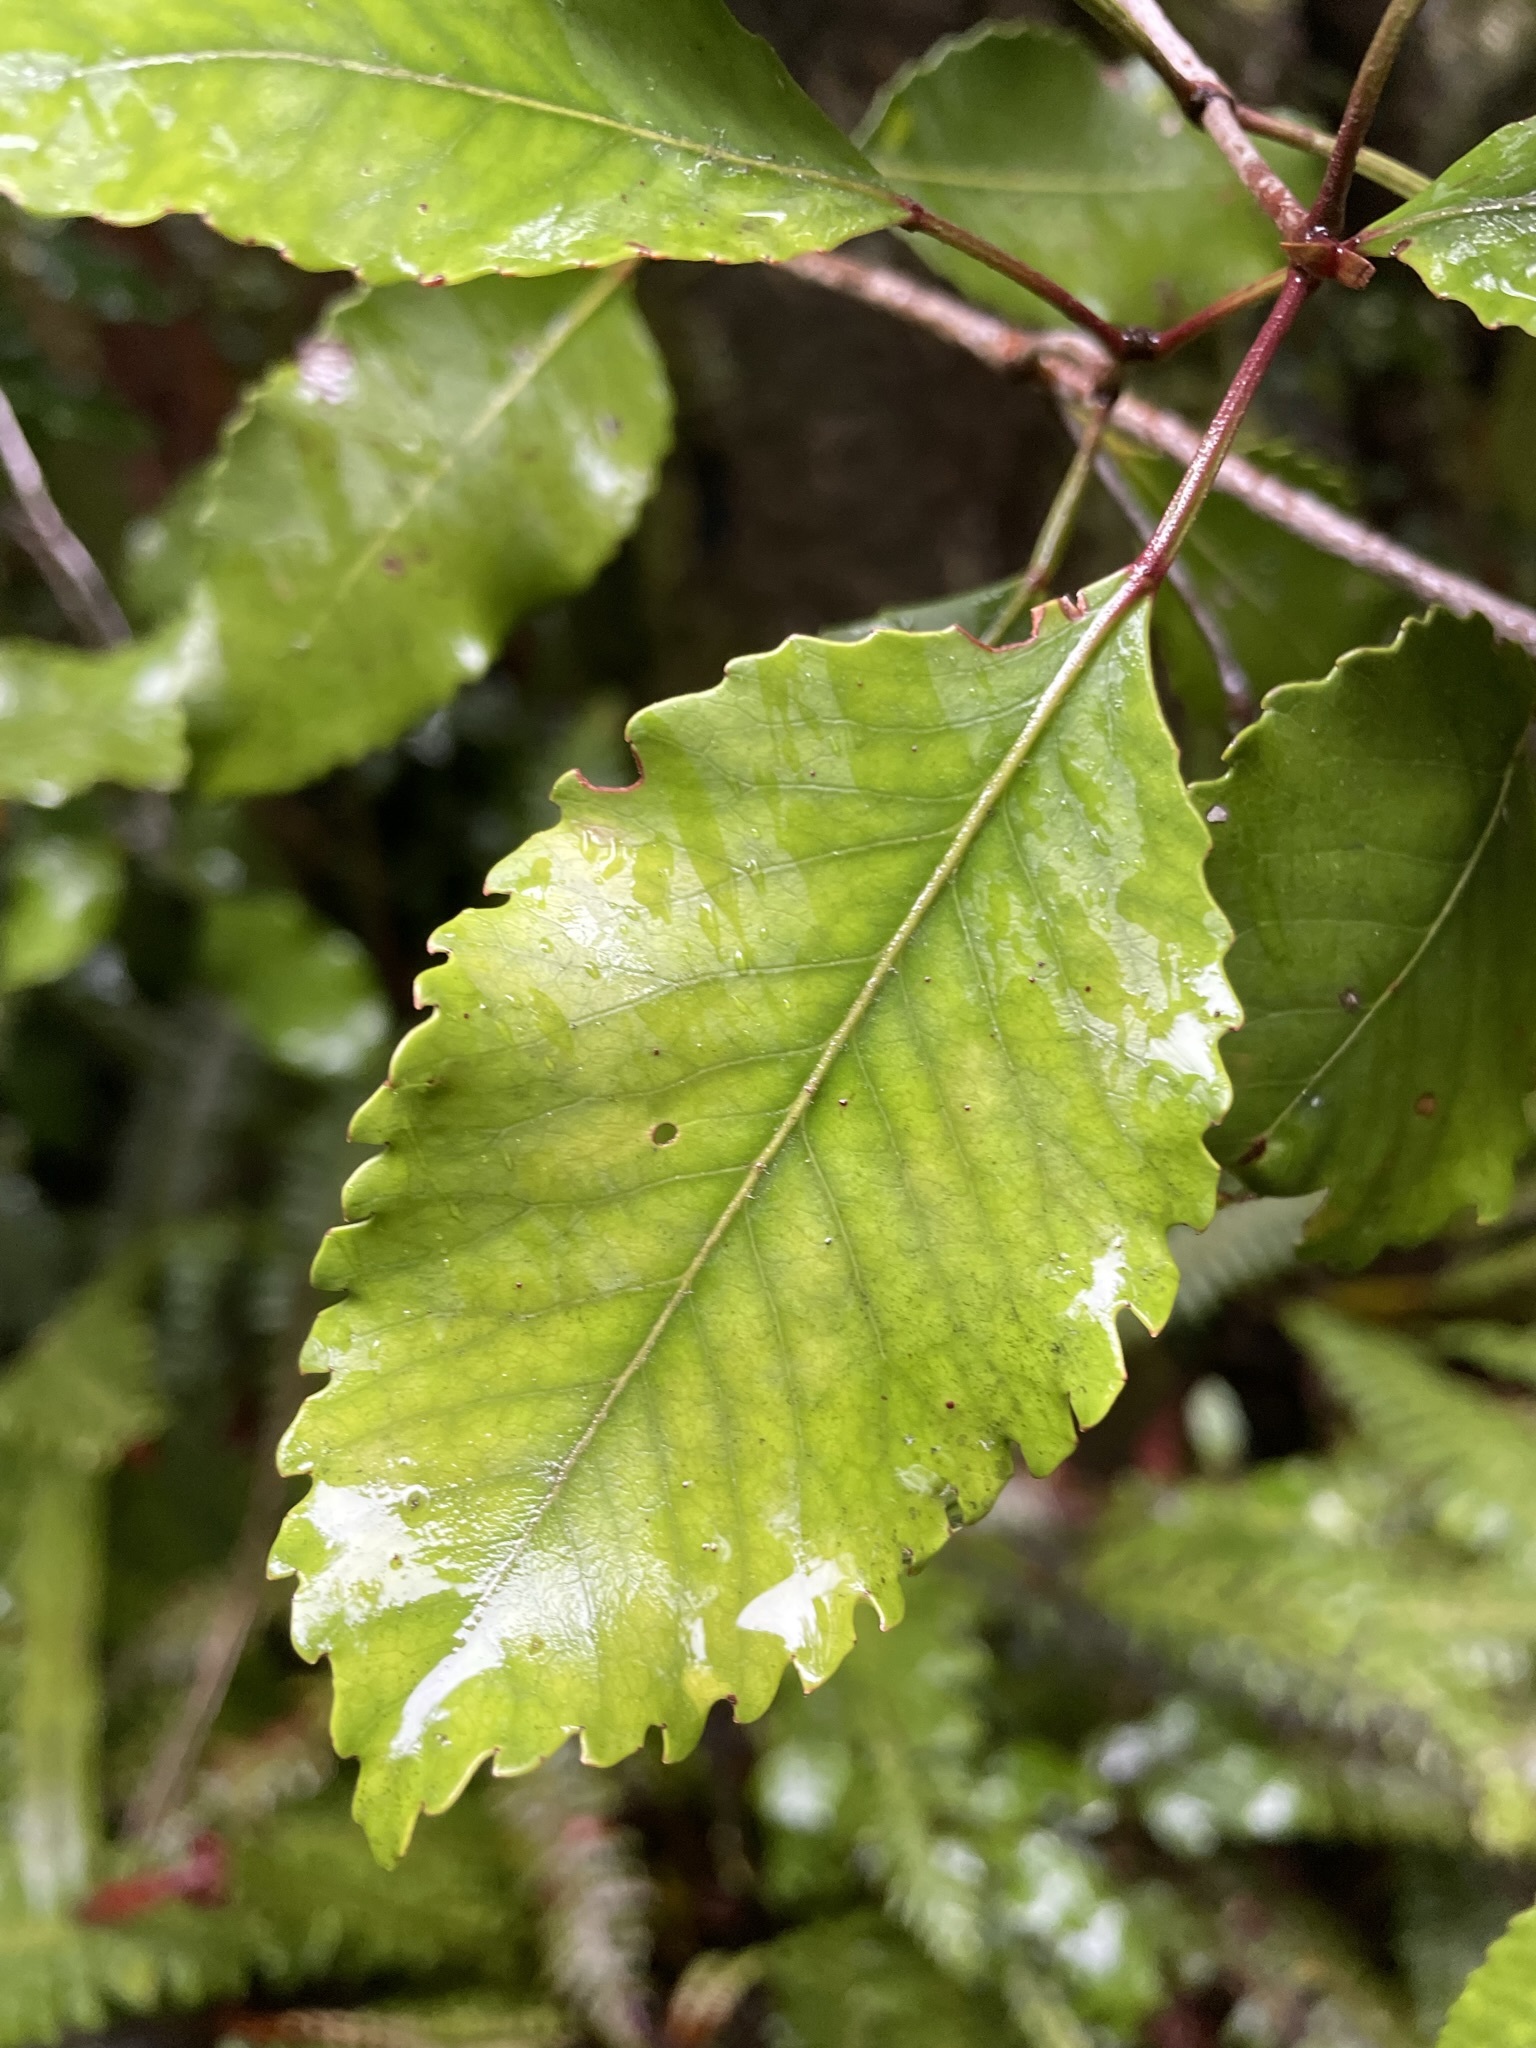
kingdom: Plantae
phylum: Tracheophyta
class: Magnoliopsida
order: Oxalidales
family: Cunoniaceae
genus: Pterophylla
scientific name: Pterophylla racemosa
